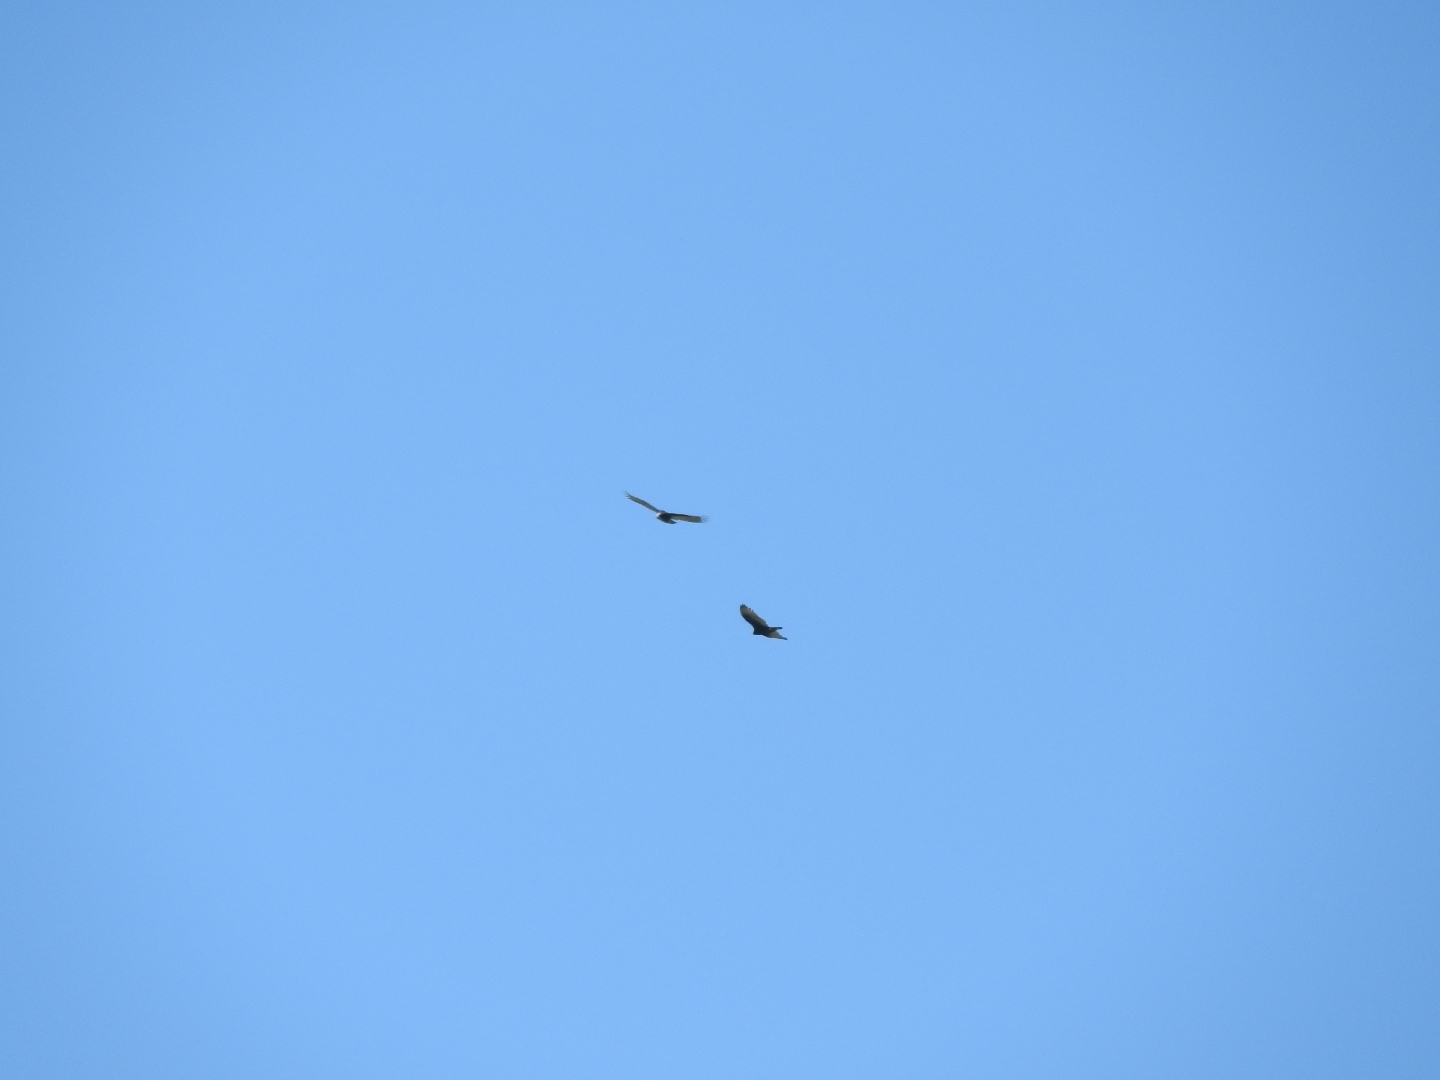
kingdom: Animalia
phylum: Chordata
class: Aves
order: Accipitriformes
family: Cathartidae
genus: Cathartes
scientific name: Cathartes aura
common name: Turkey vulture
